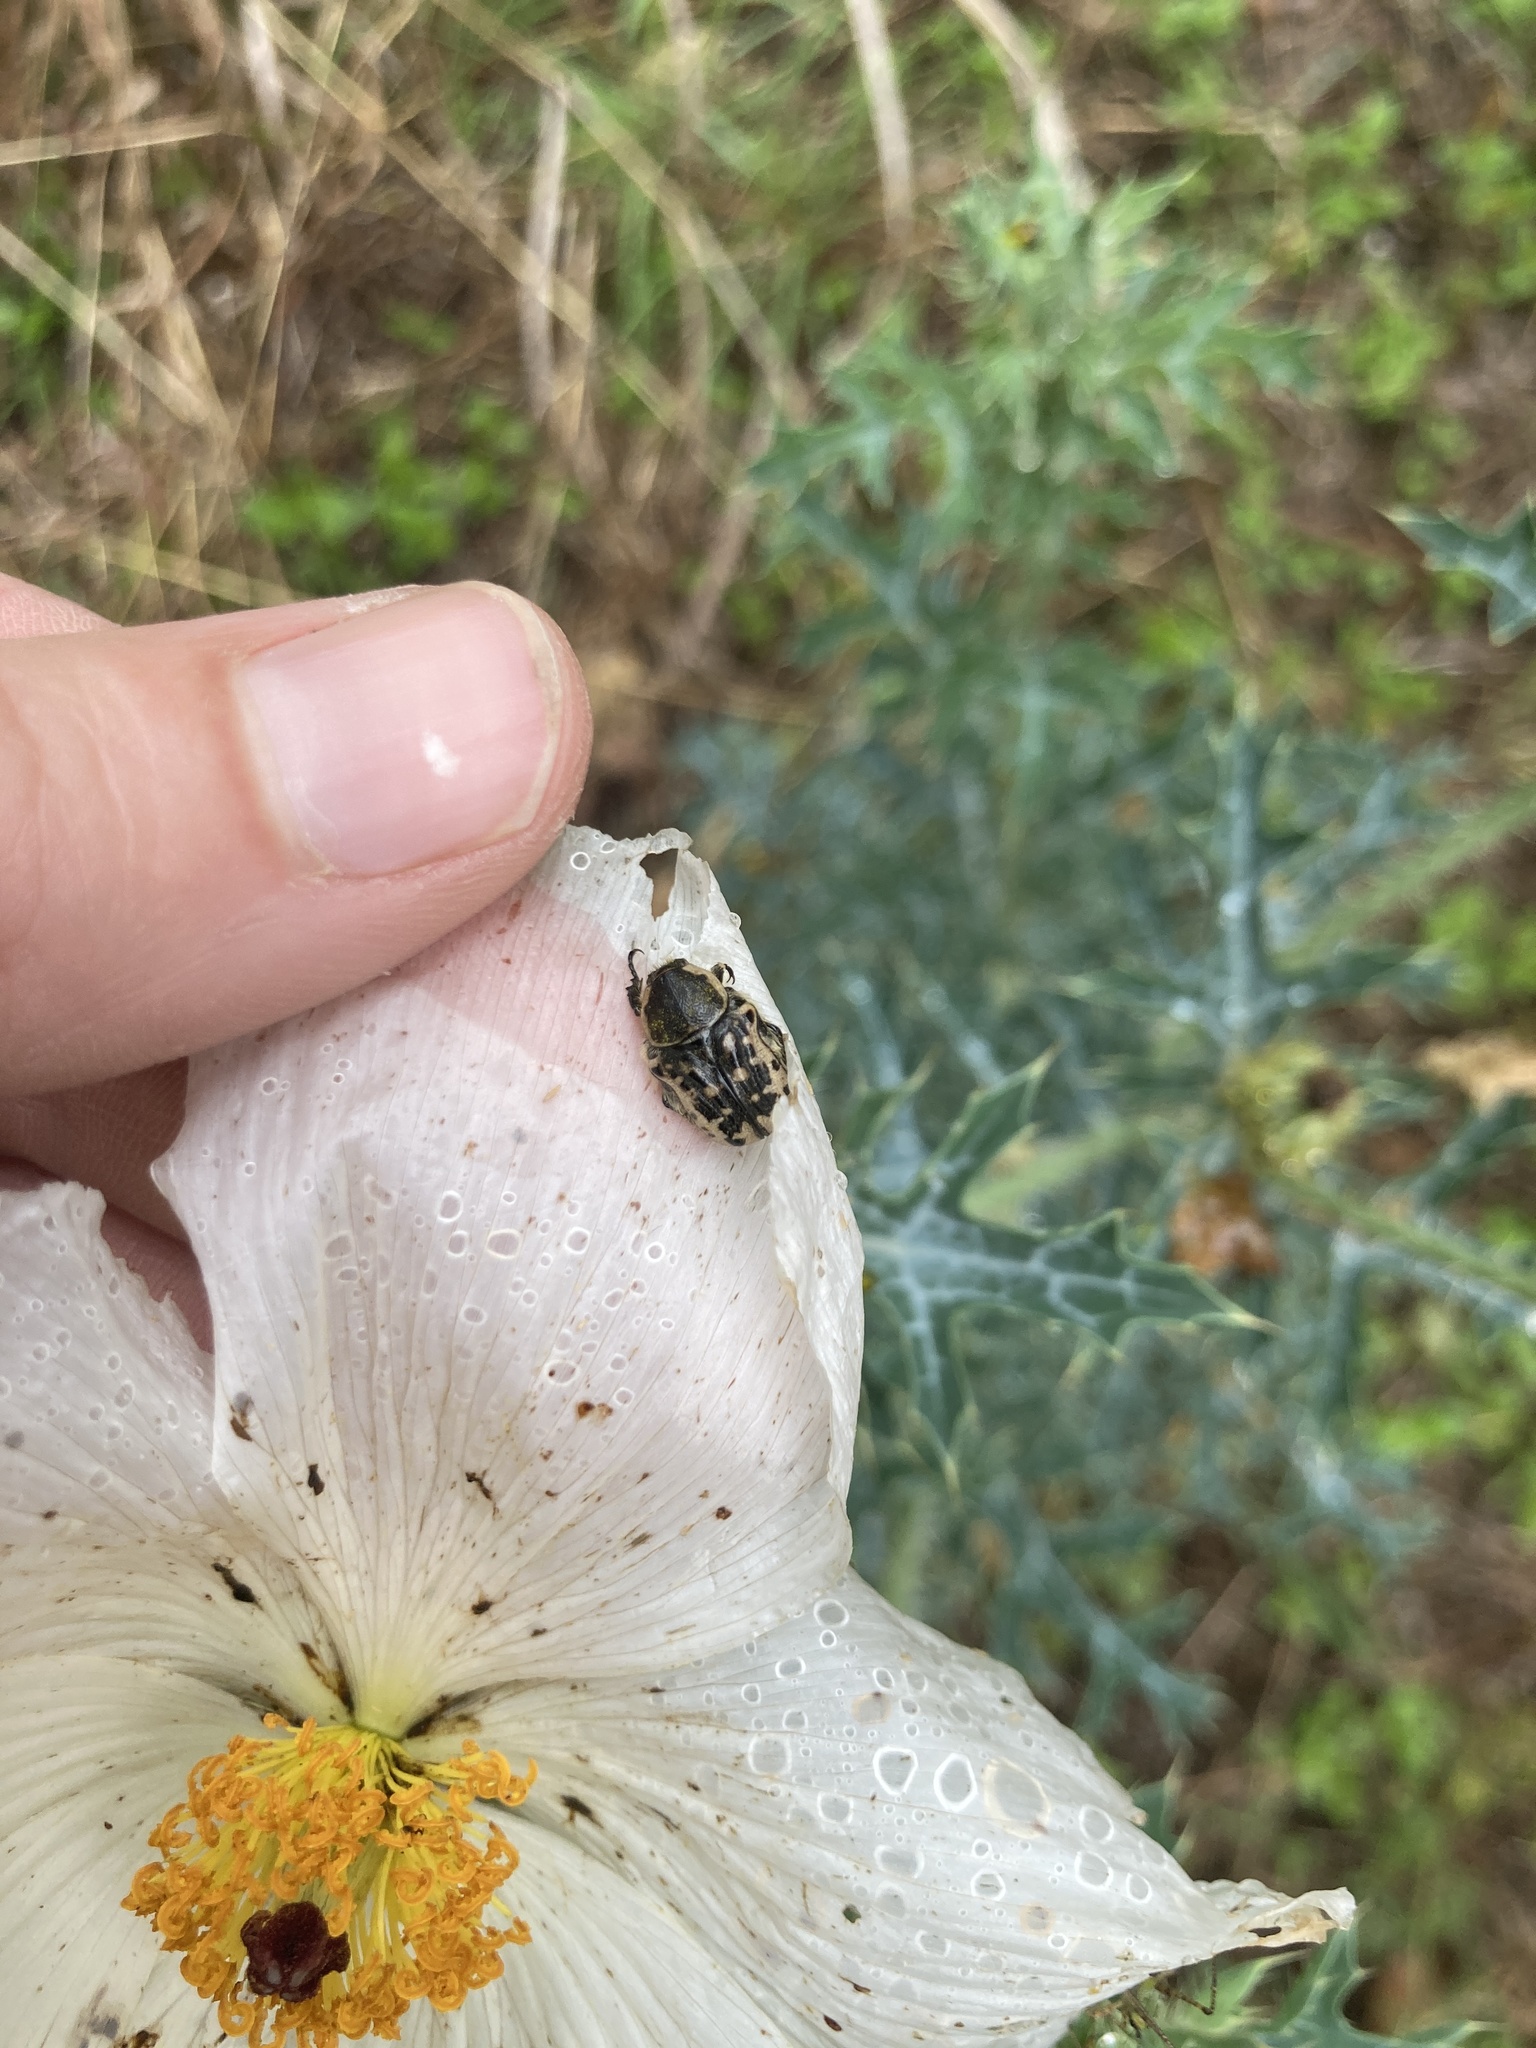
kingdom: Animalia
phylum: Arthropoda
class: Insecta
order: Coleoptera
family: Scarabaeidae
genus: Euphoria
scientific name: Euphoria kernii
